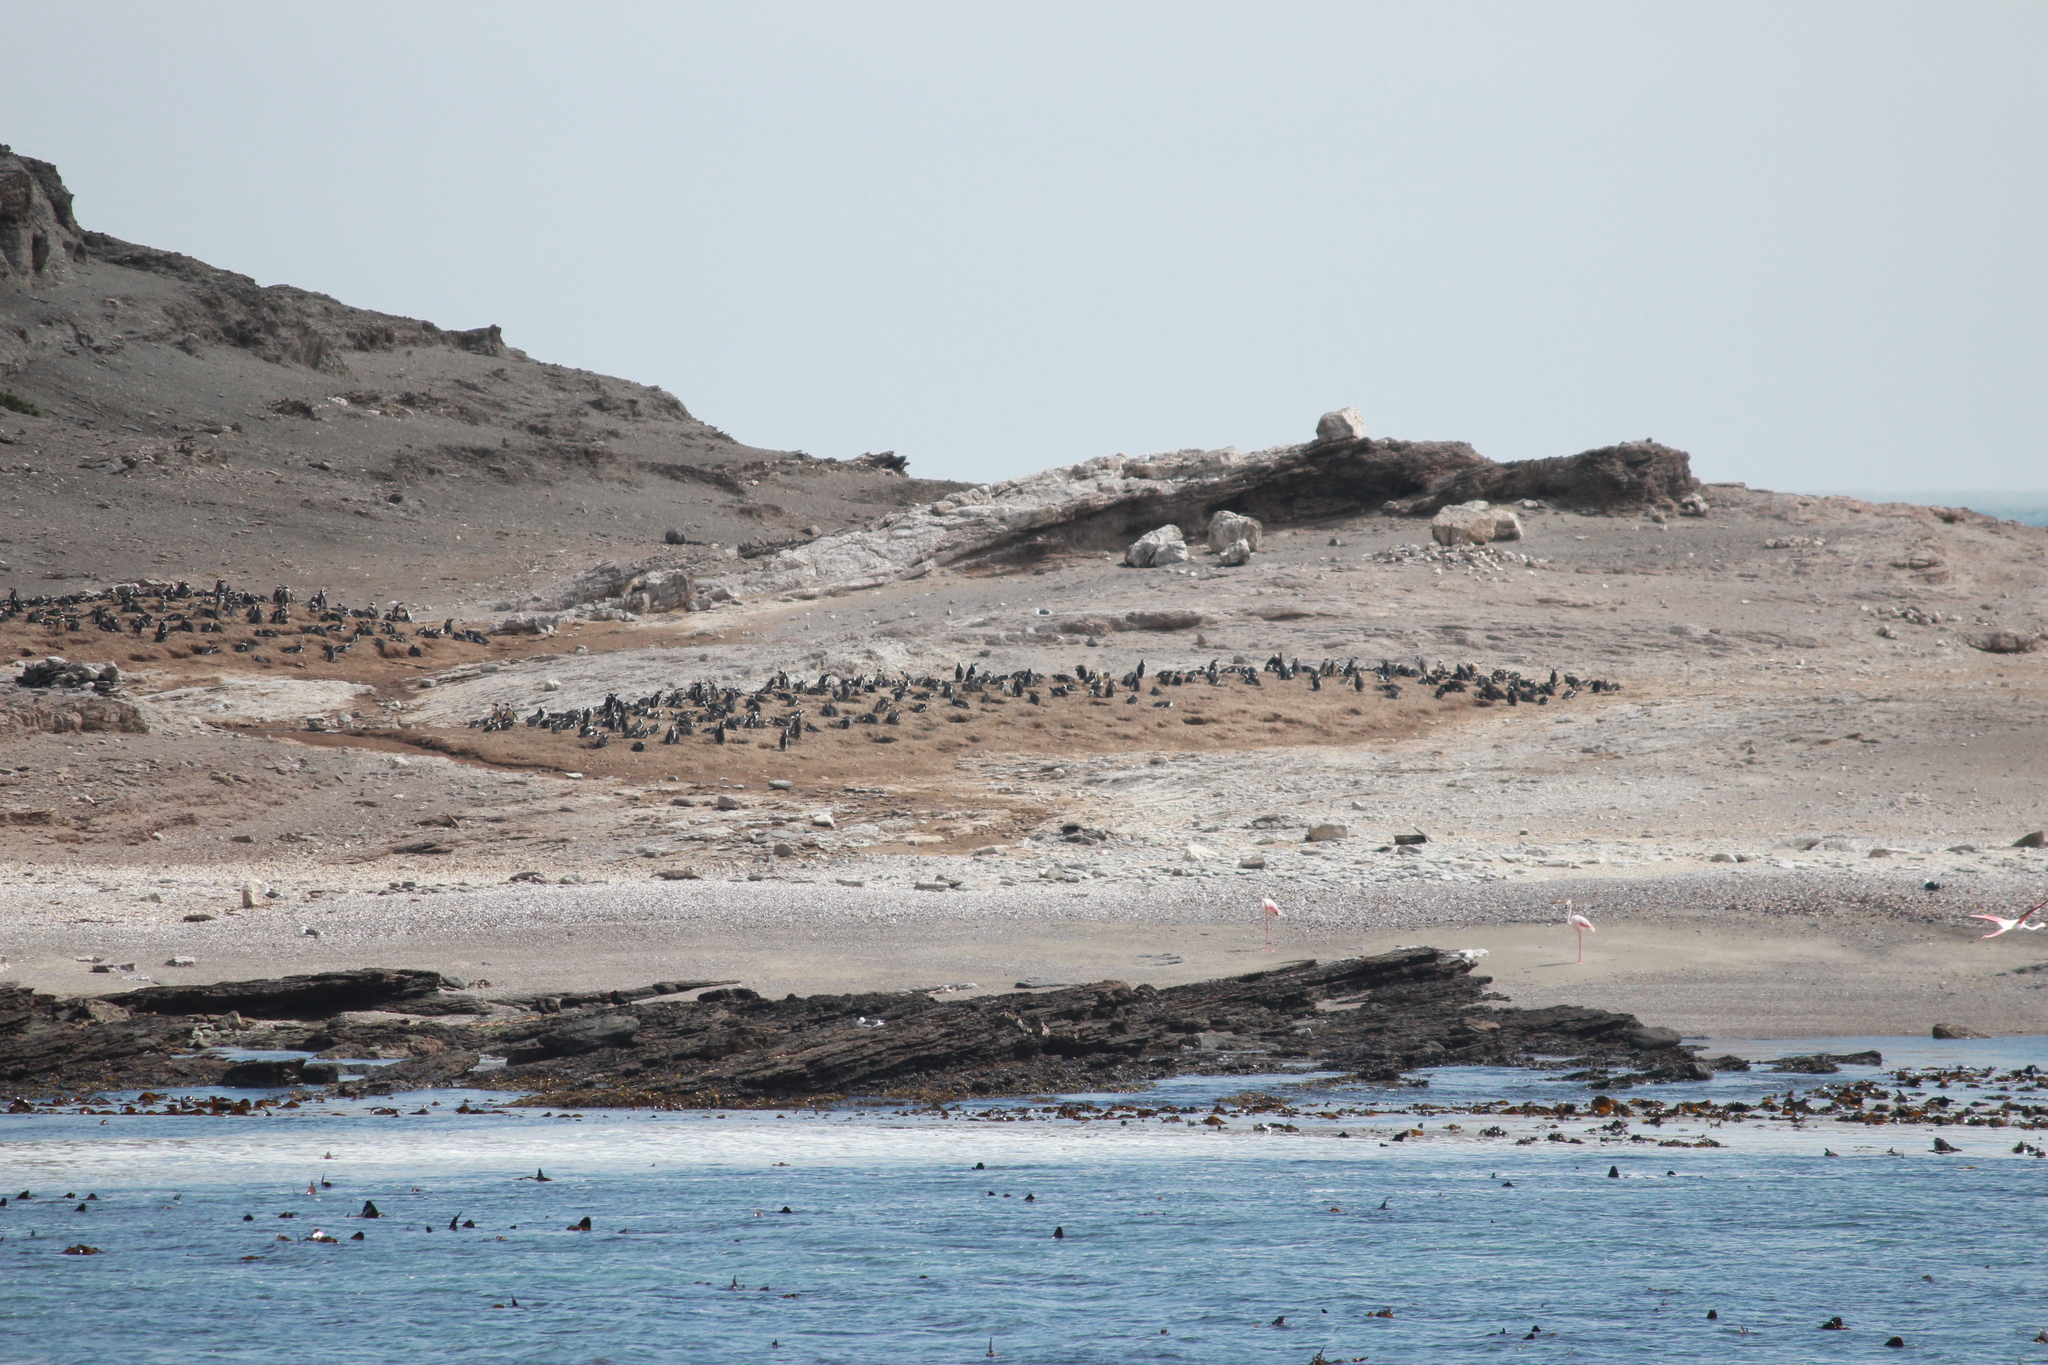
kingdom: Animalia
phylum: Chordata
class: Aves
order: Sphenisciformes
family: Spheniscidae
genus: Spheniscus
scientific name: Spheniscus demersus
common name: African penguin
